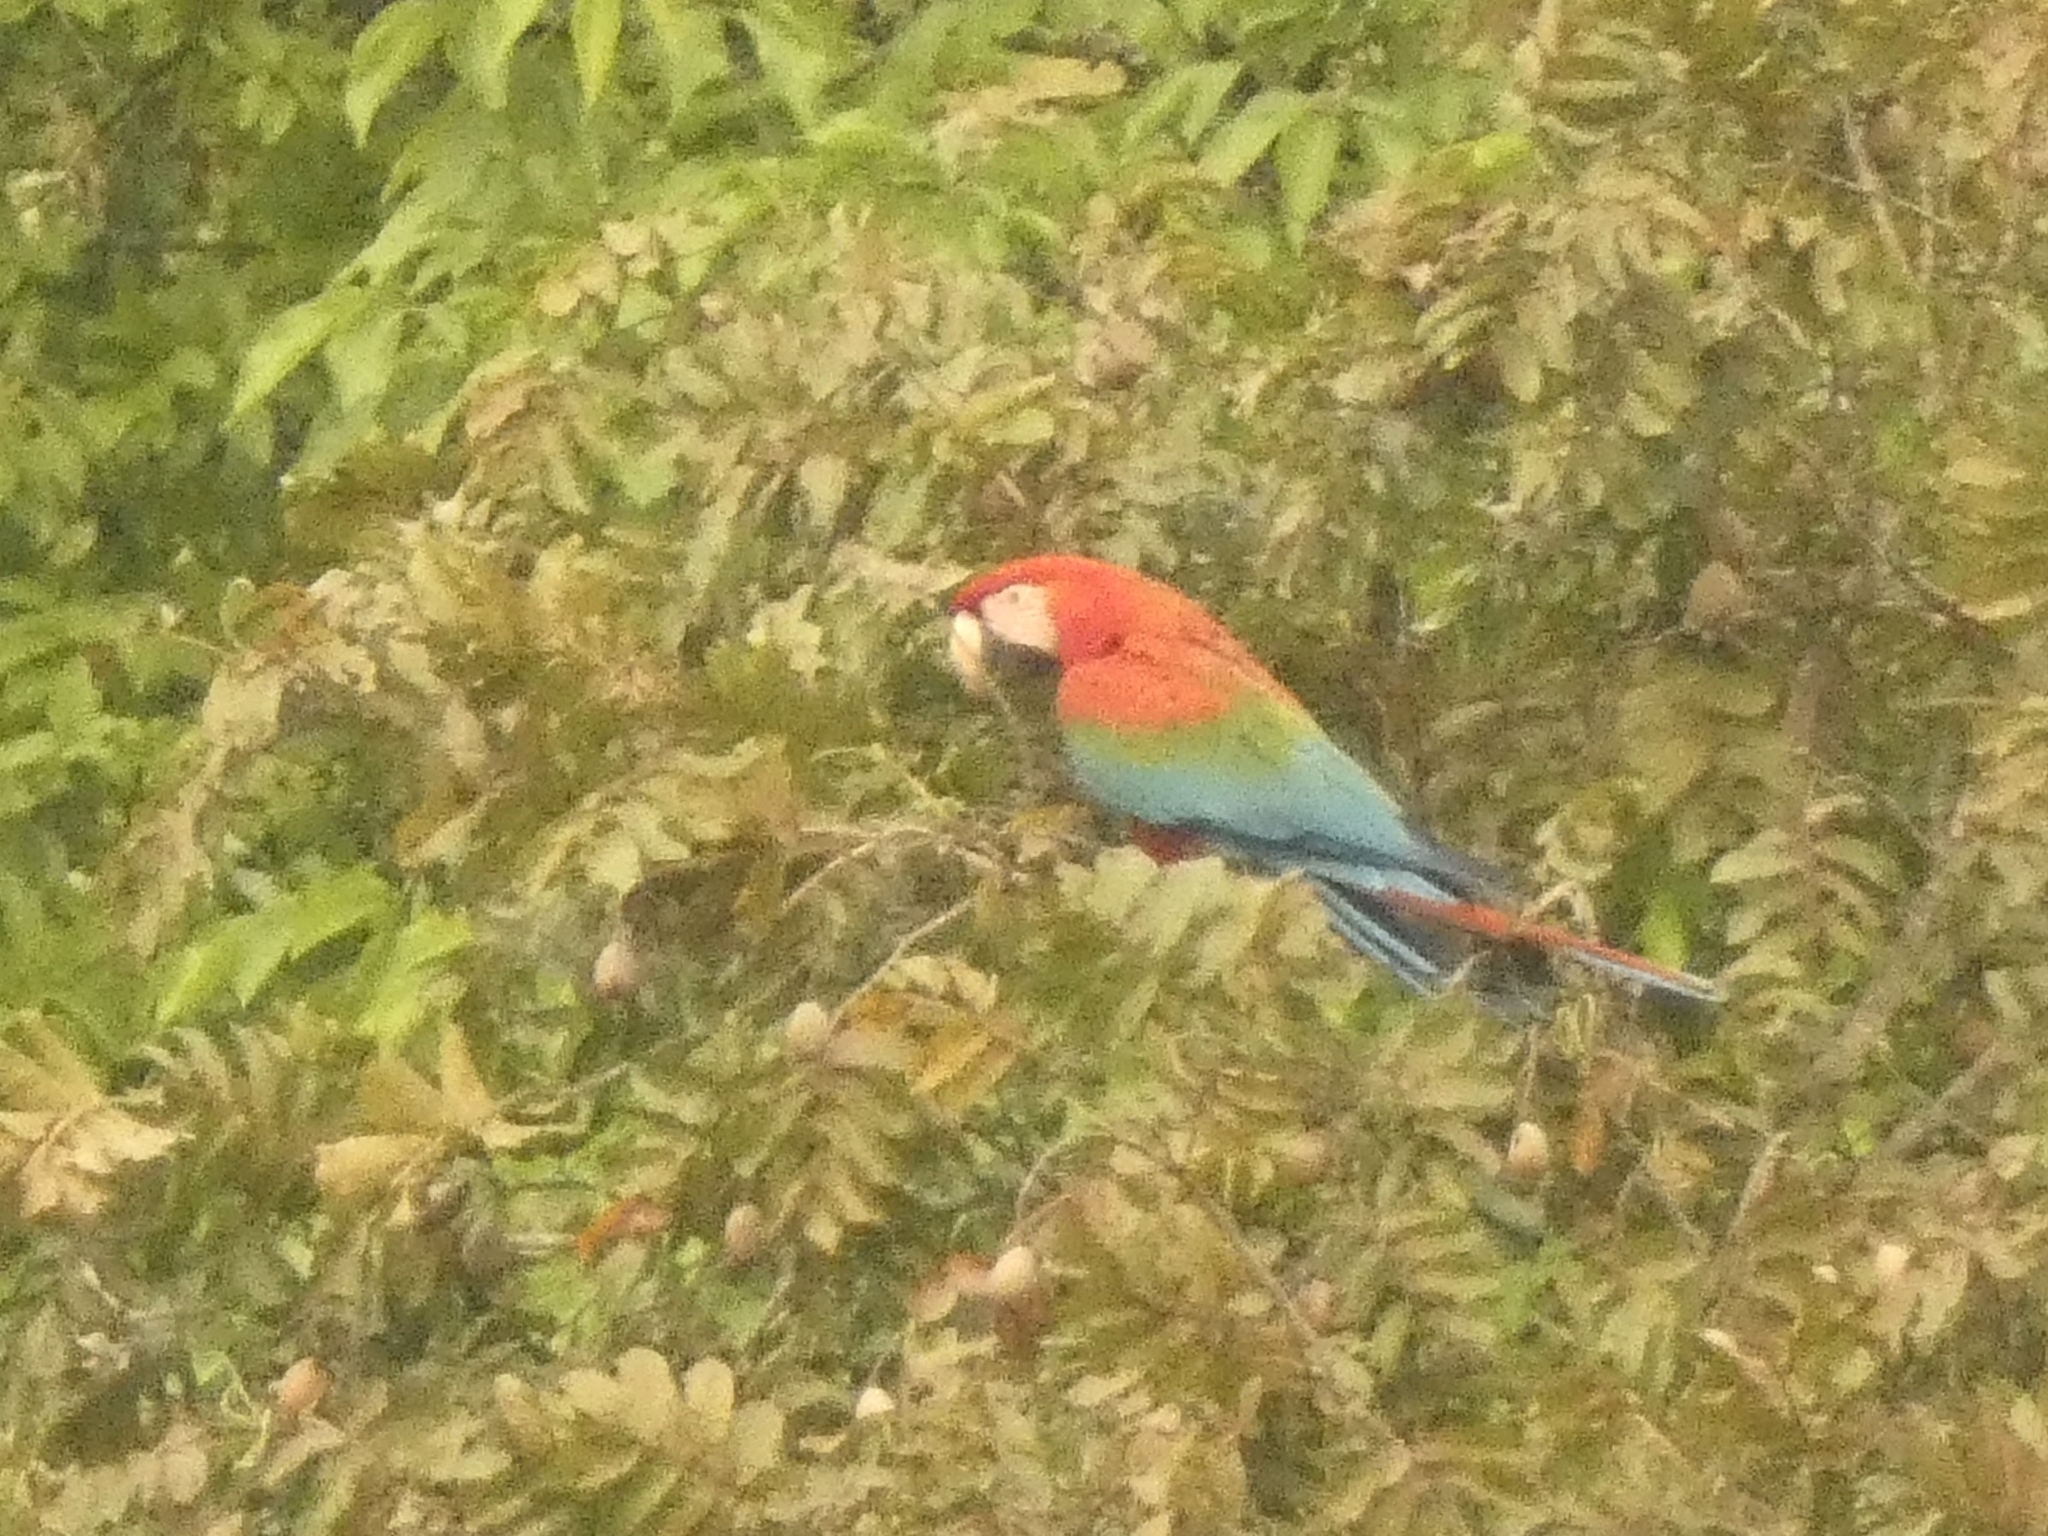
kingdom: Animalia
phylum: Chordata
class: Aves
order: Psittaciformes
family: Psittacidae
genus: Ara
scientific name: Ara chloropterus
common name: Red-and-green macaw
